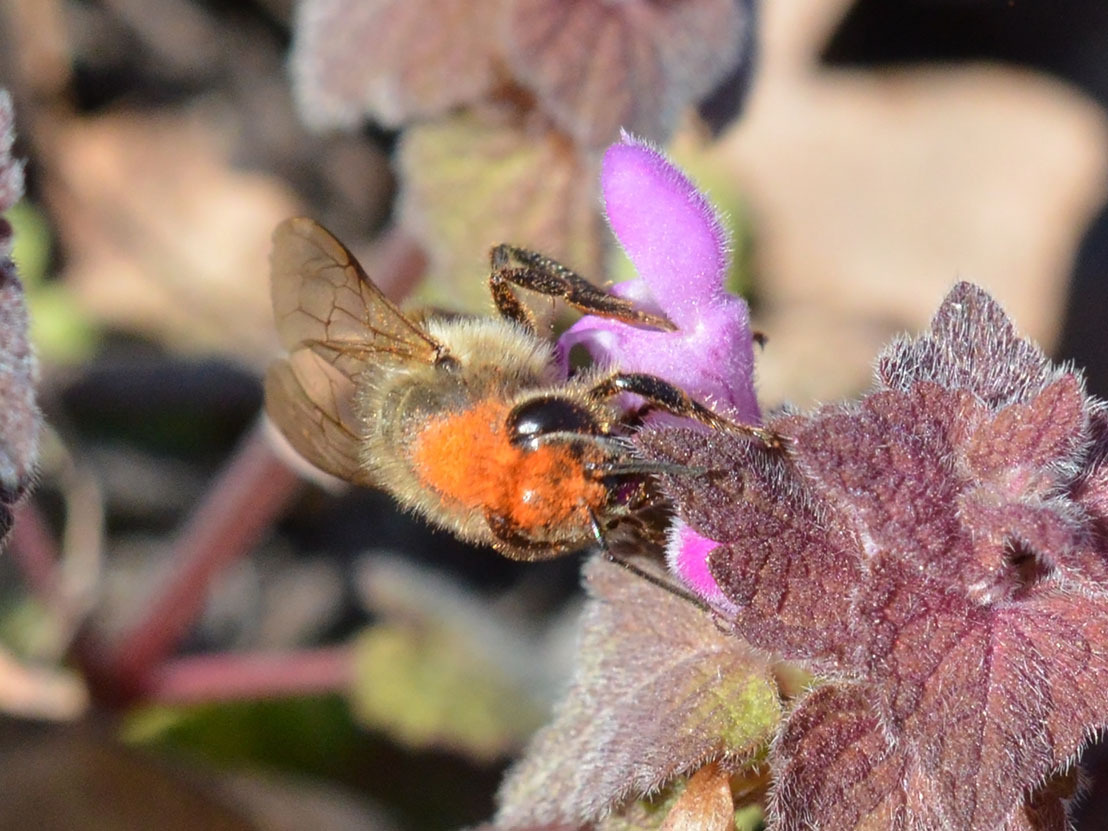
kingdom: Animalia
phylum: Arthropoda
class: Insecta
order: Hymenoptera
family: Apidae
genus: Apis
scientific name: Apis mellifera
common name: Honey bee
